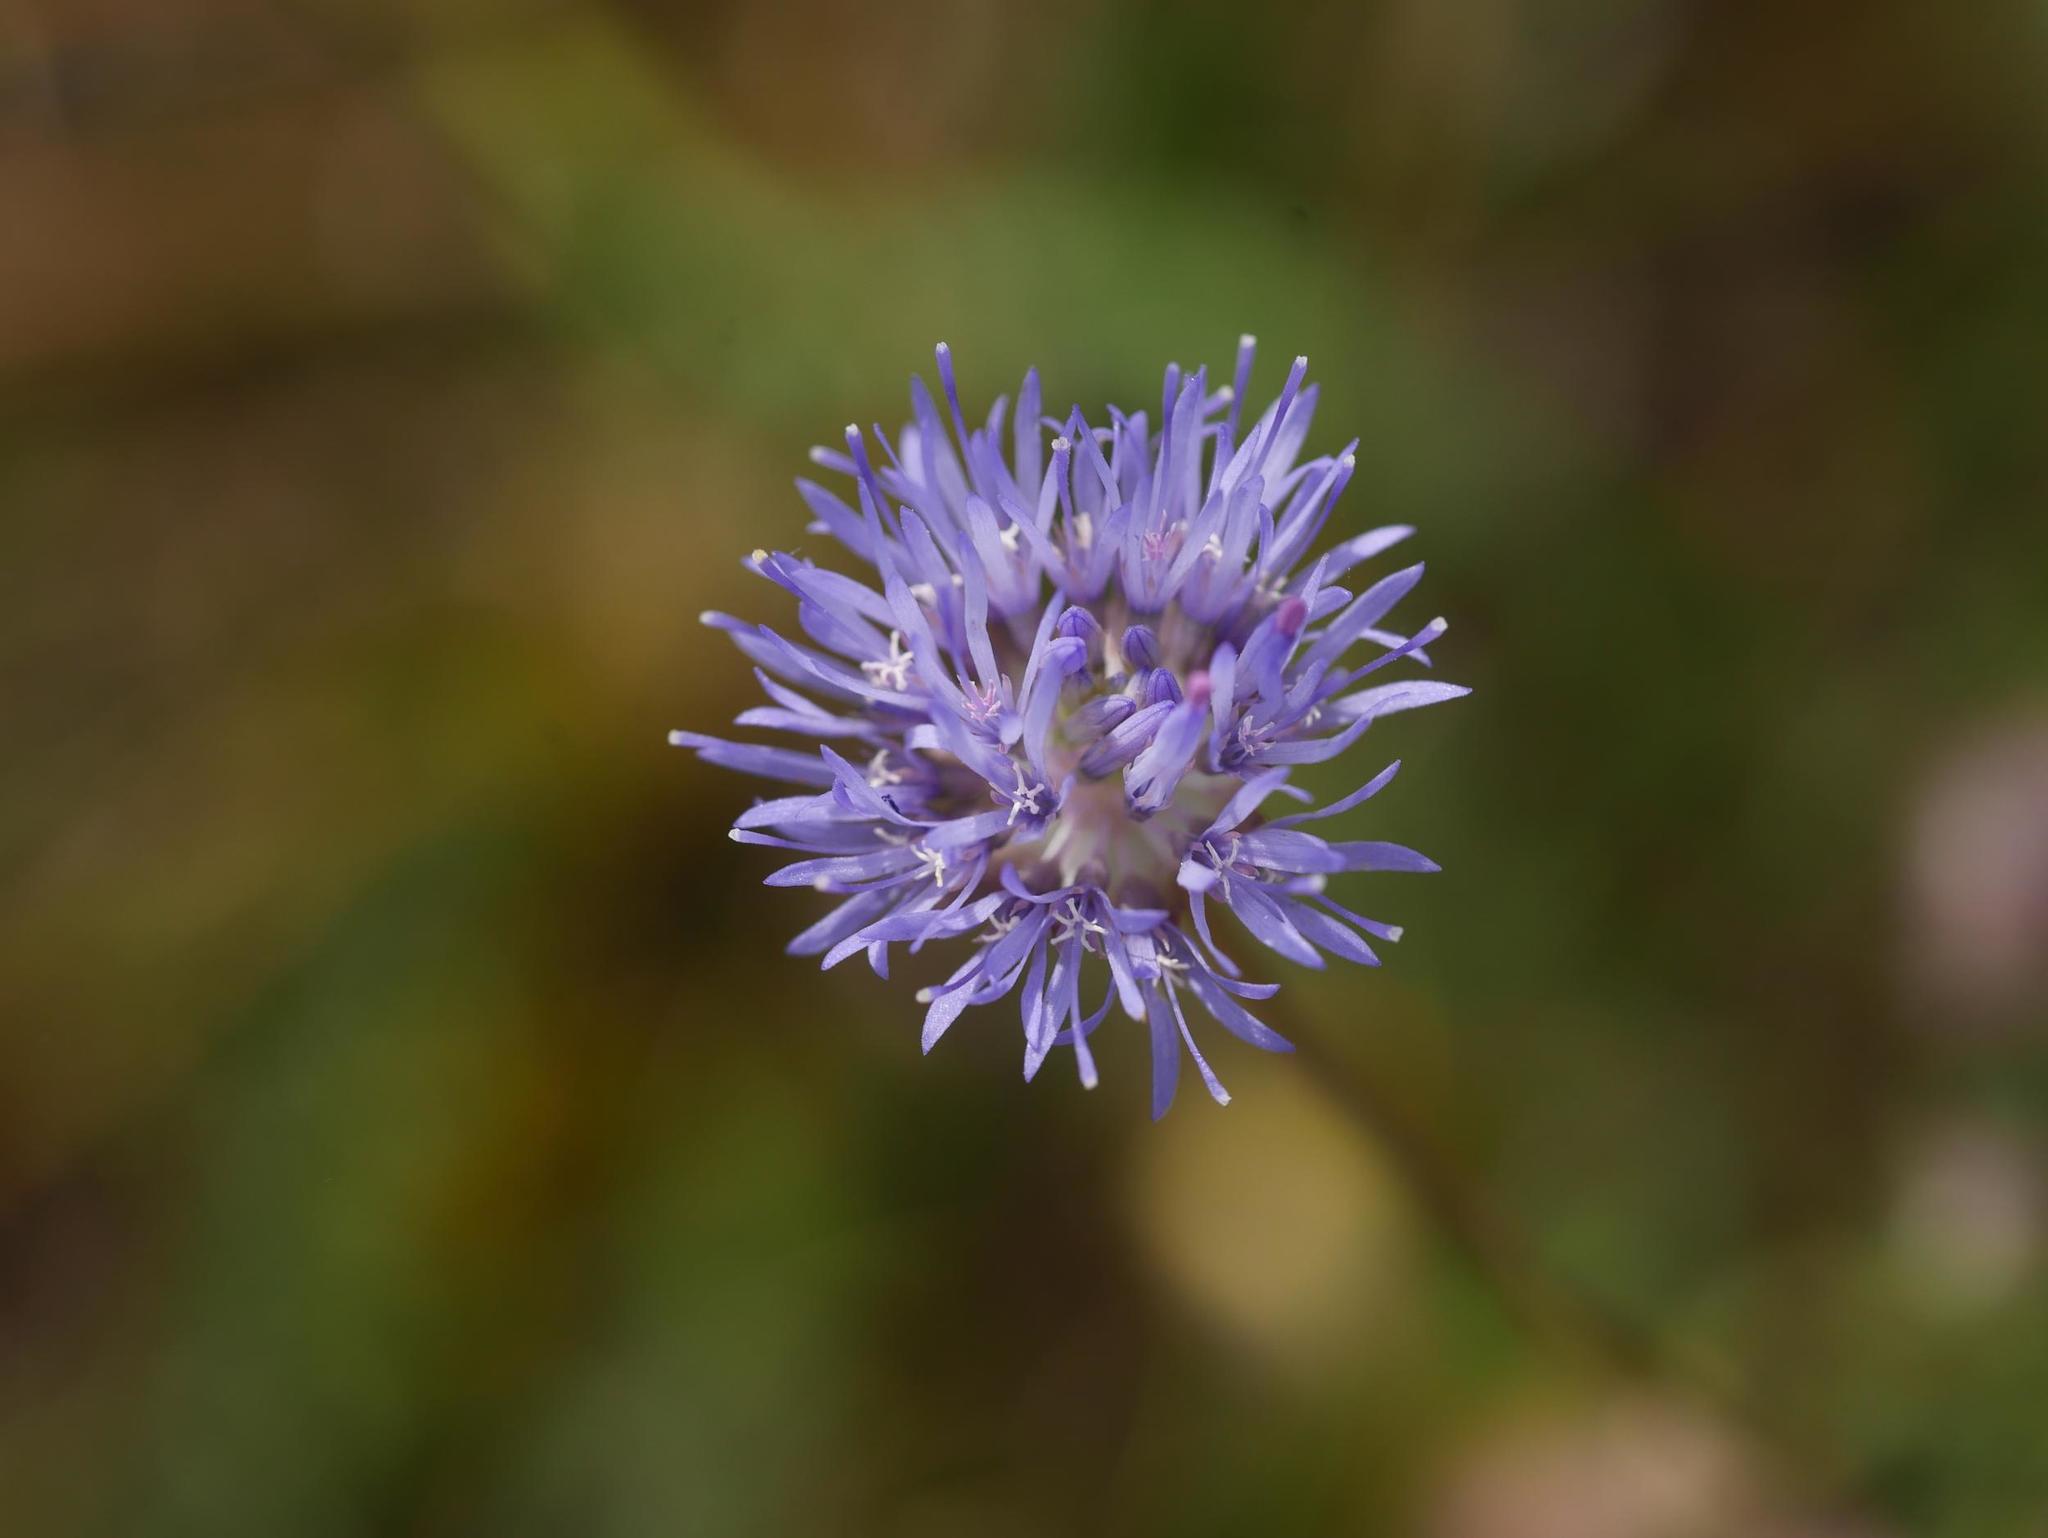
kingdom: Plantae
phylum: Tracheophyta
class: Magnoliopsida
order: Asterales
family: Campanulaceae
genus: Jasione
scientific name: Jasione montana
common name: Sheep's-bit
